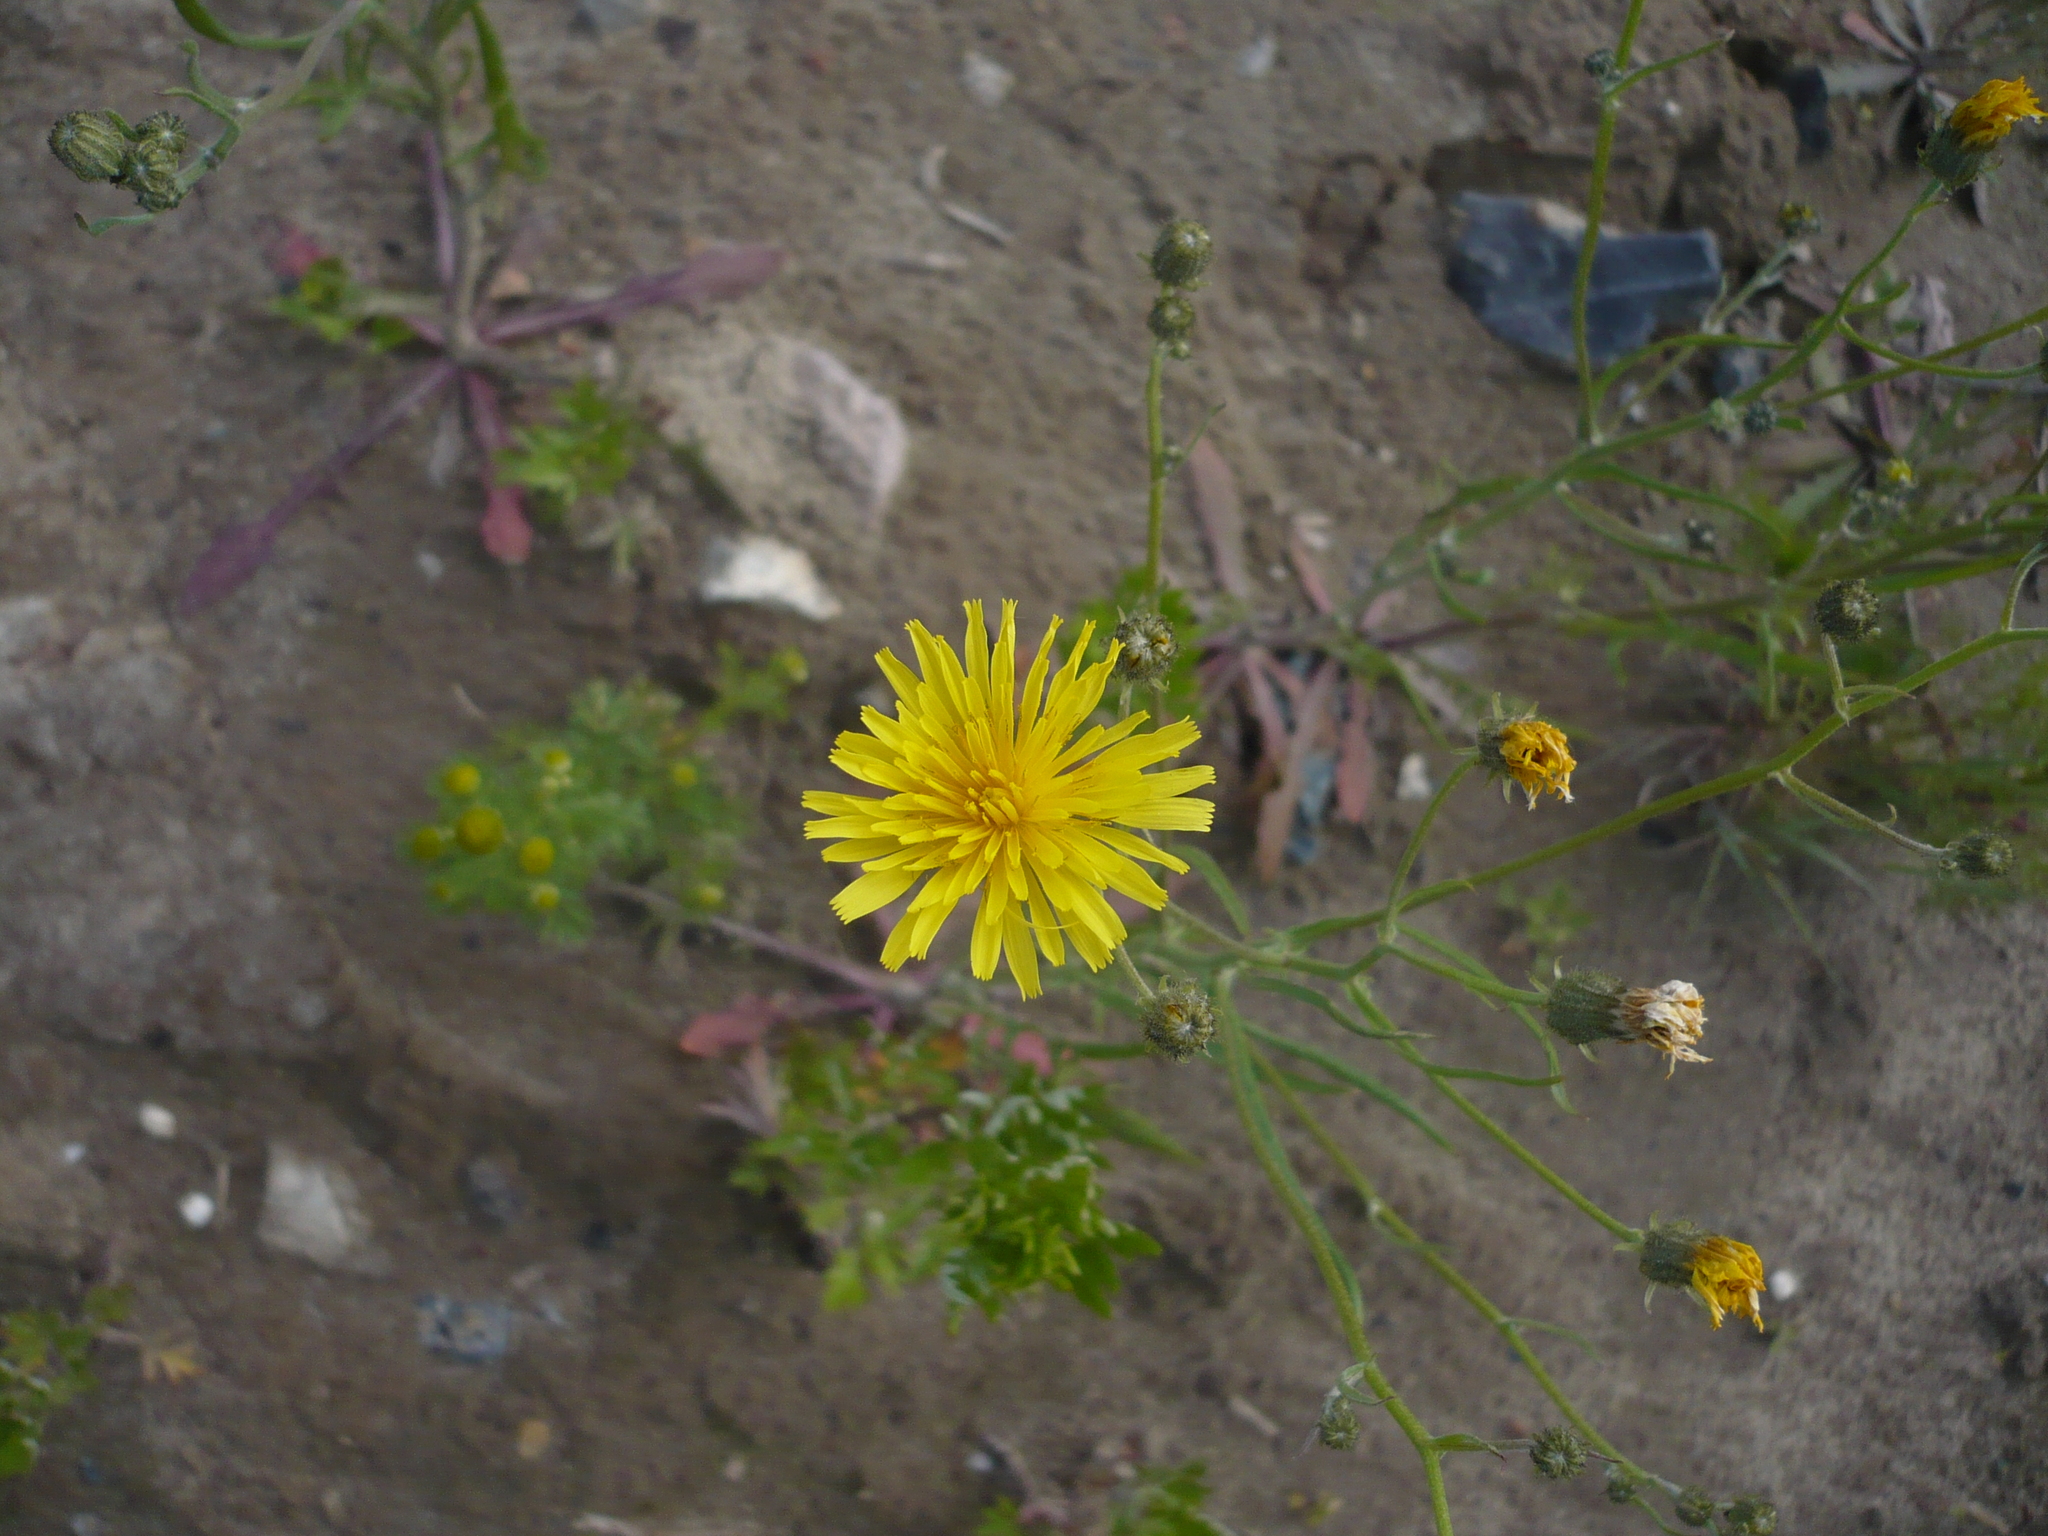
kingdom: Plantae
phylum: Tracheophyta
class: Magnoliopsida
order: Asterales
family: Asteraceae
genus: Crepis
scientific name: Crepis tectorum
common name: Narrow-leaved hawk's-beard
